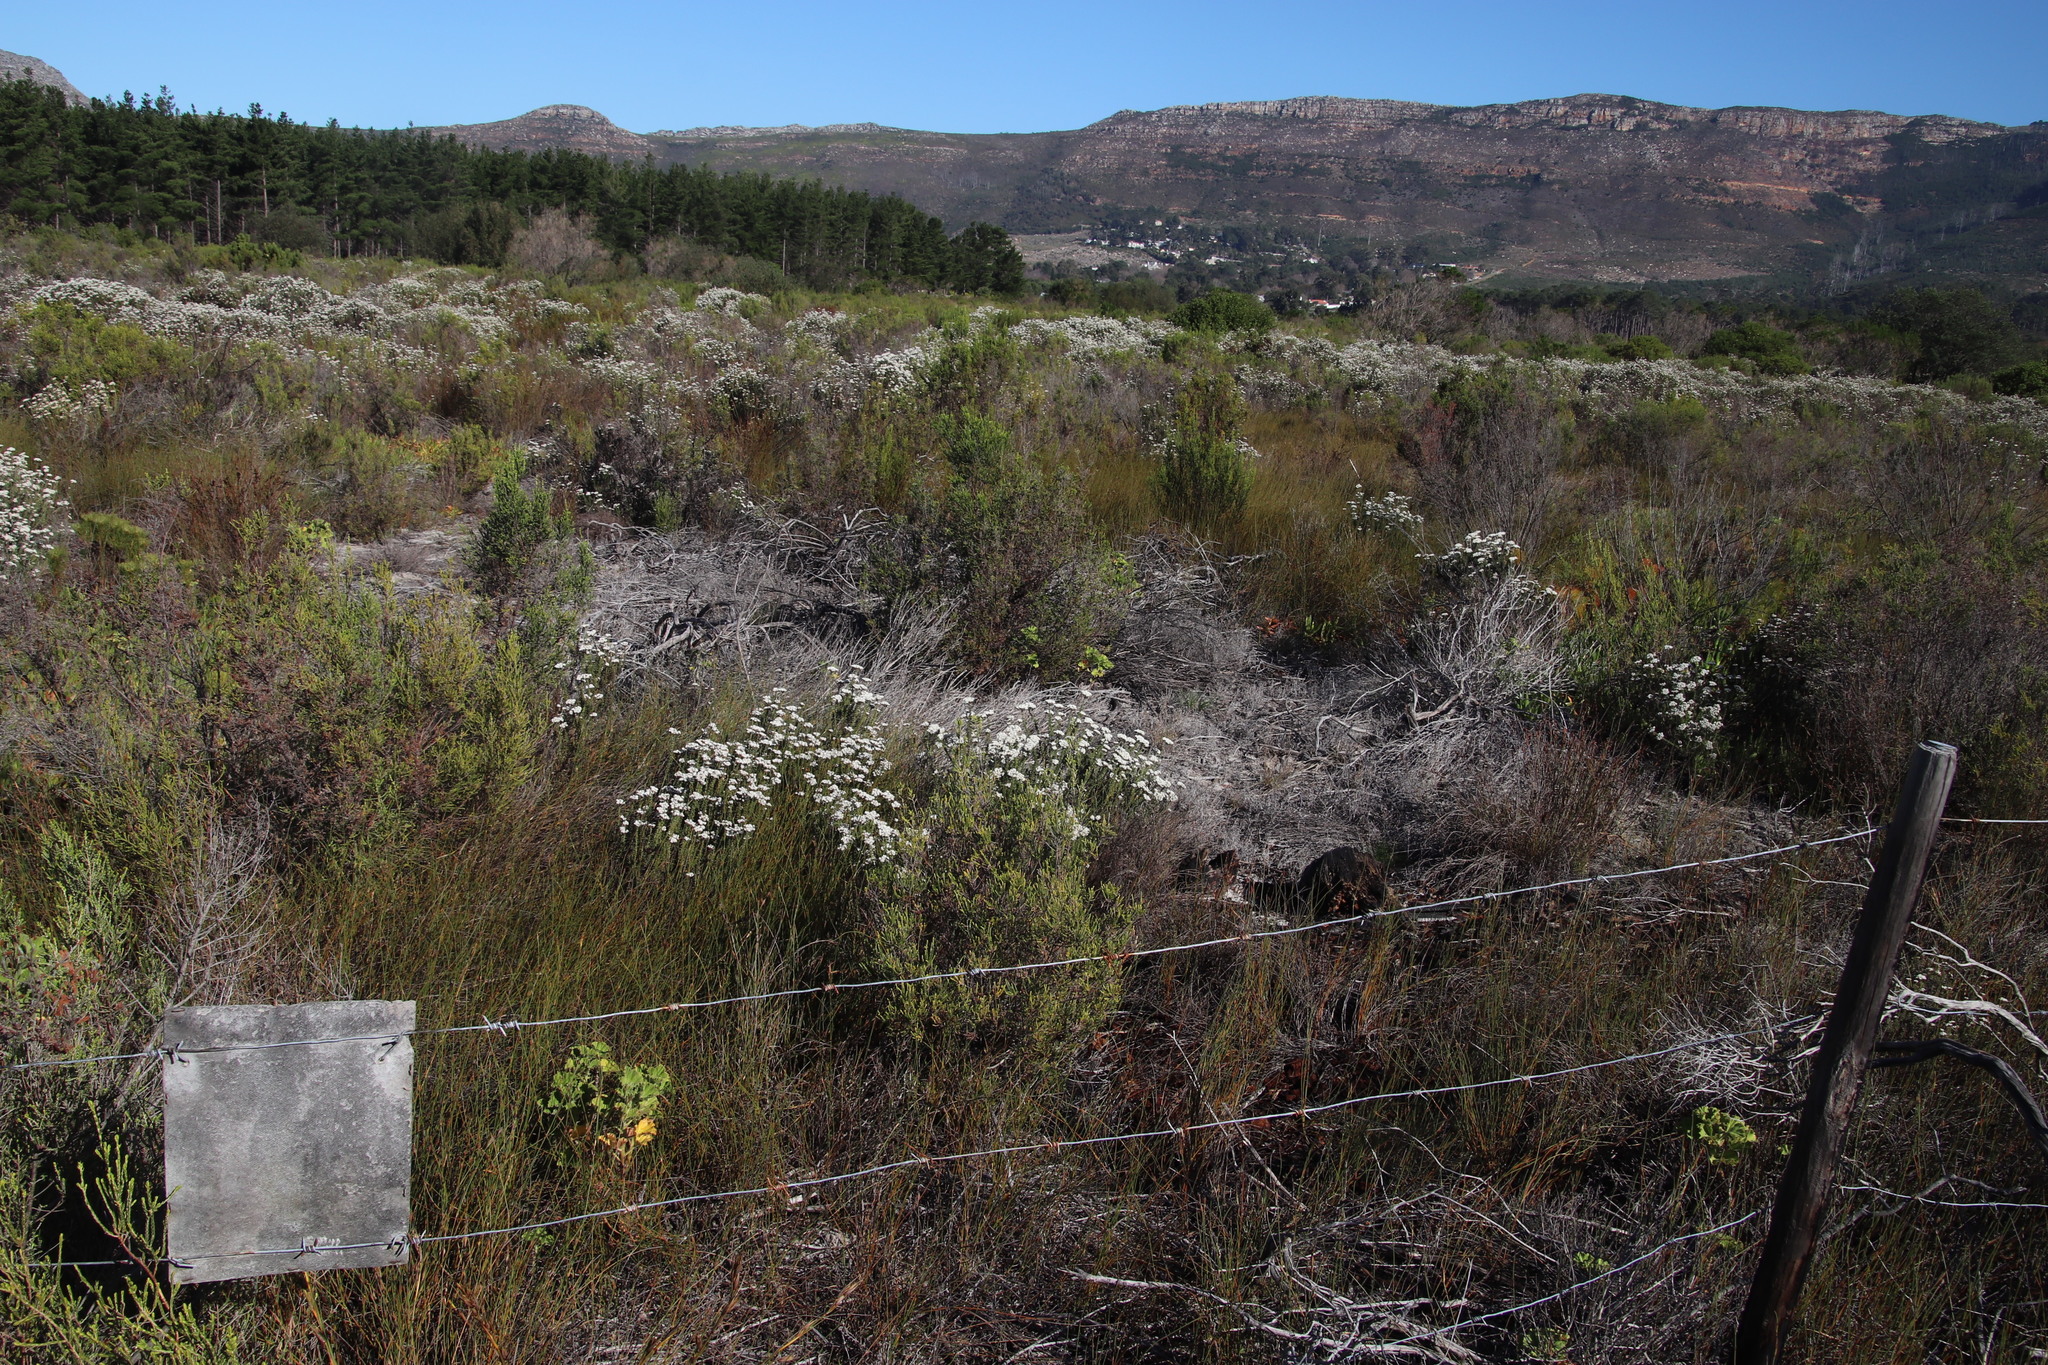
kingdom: Plantae
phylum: Tracheophyta
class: Liliopsida
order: Poales
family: Restionaceae
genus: Willdenowia
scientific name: Willdenowia sulcata
